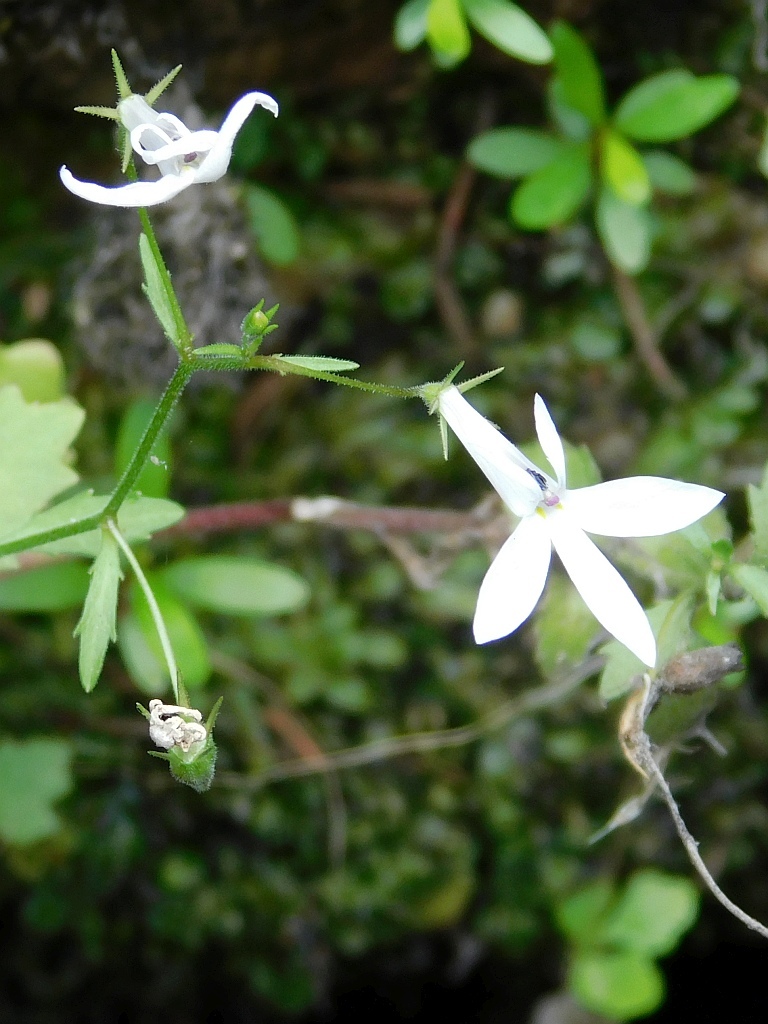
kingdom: Plantae
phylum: Tracheophyta
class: Magnoliopsida
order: Asterales
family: Campanulaceae
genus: Lobelia
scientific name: Lobelia pubescens
